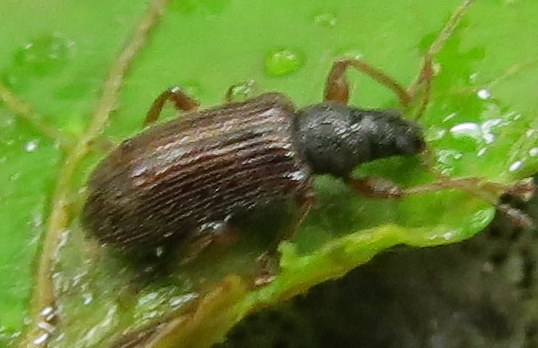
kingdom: Animalia
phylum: Arthropoda
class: Insecta
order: Coleoptera
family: Curculionidae
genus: Phyllobius
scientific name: Phyllobius oblongus
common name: Brown leaf weevil
